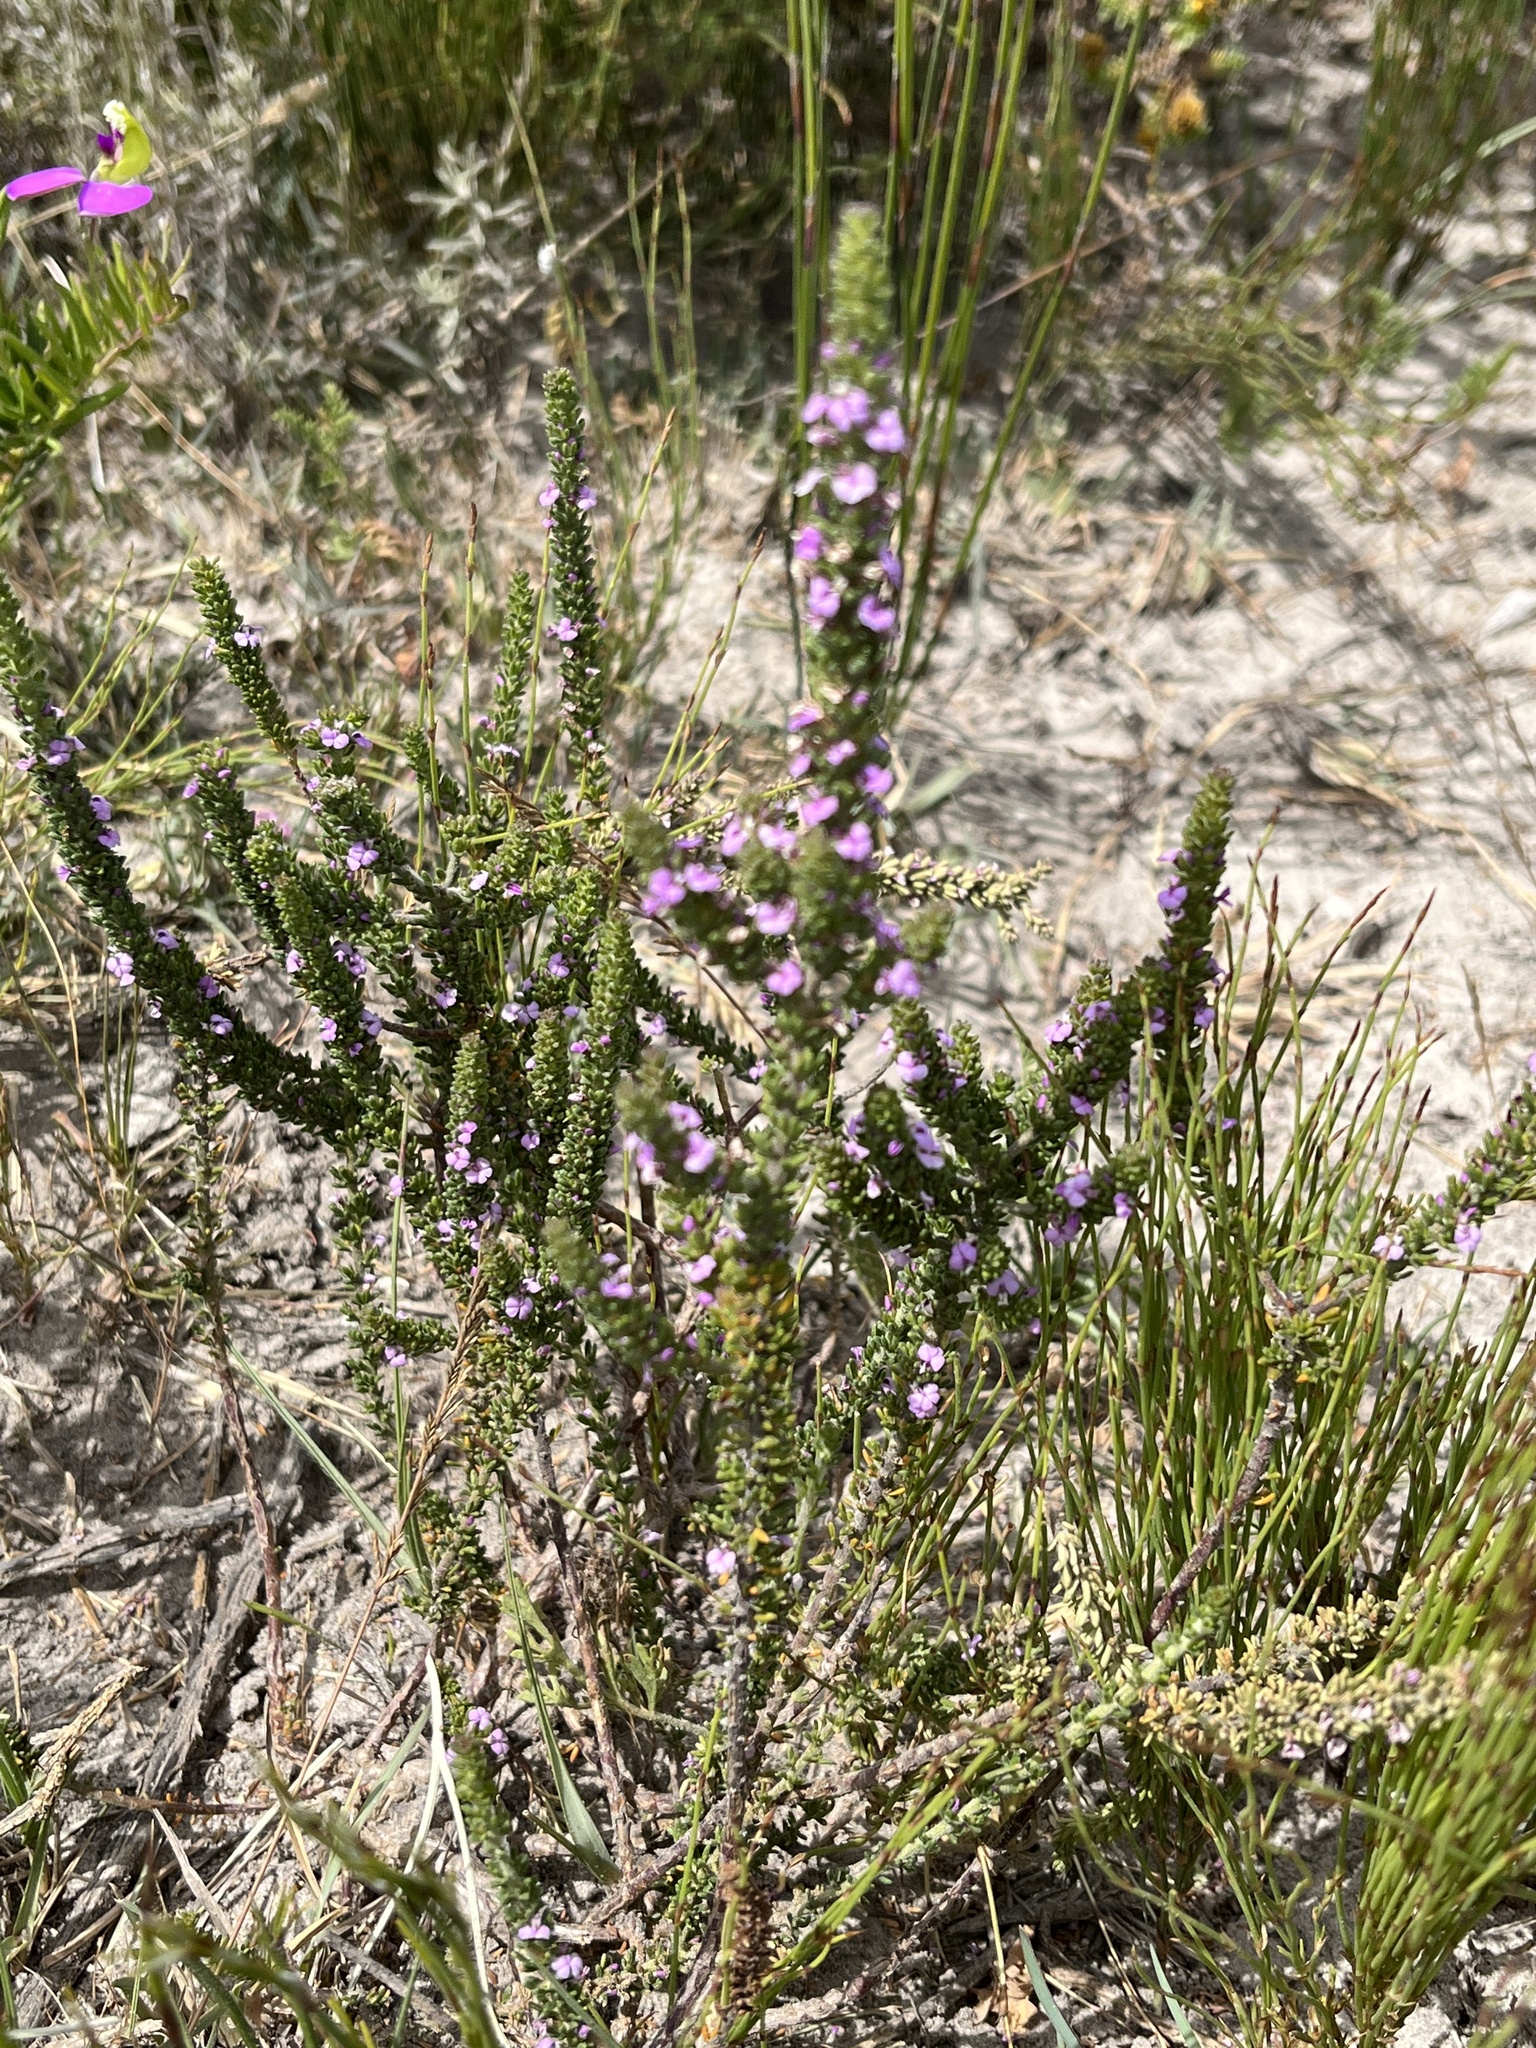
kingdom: Plantae
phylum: Tracheophyta
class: Magnoliopsida
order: Fabales
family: Polygalaceae
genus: Muraltia
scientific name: Muraltia satureioides
